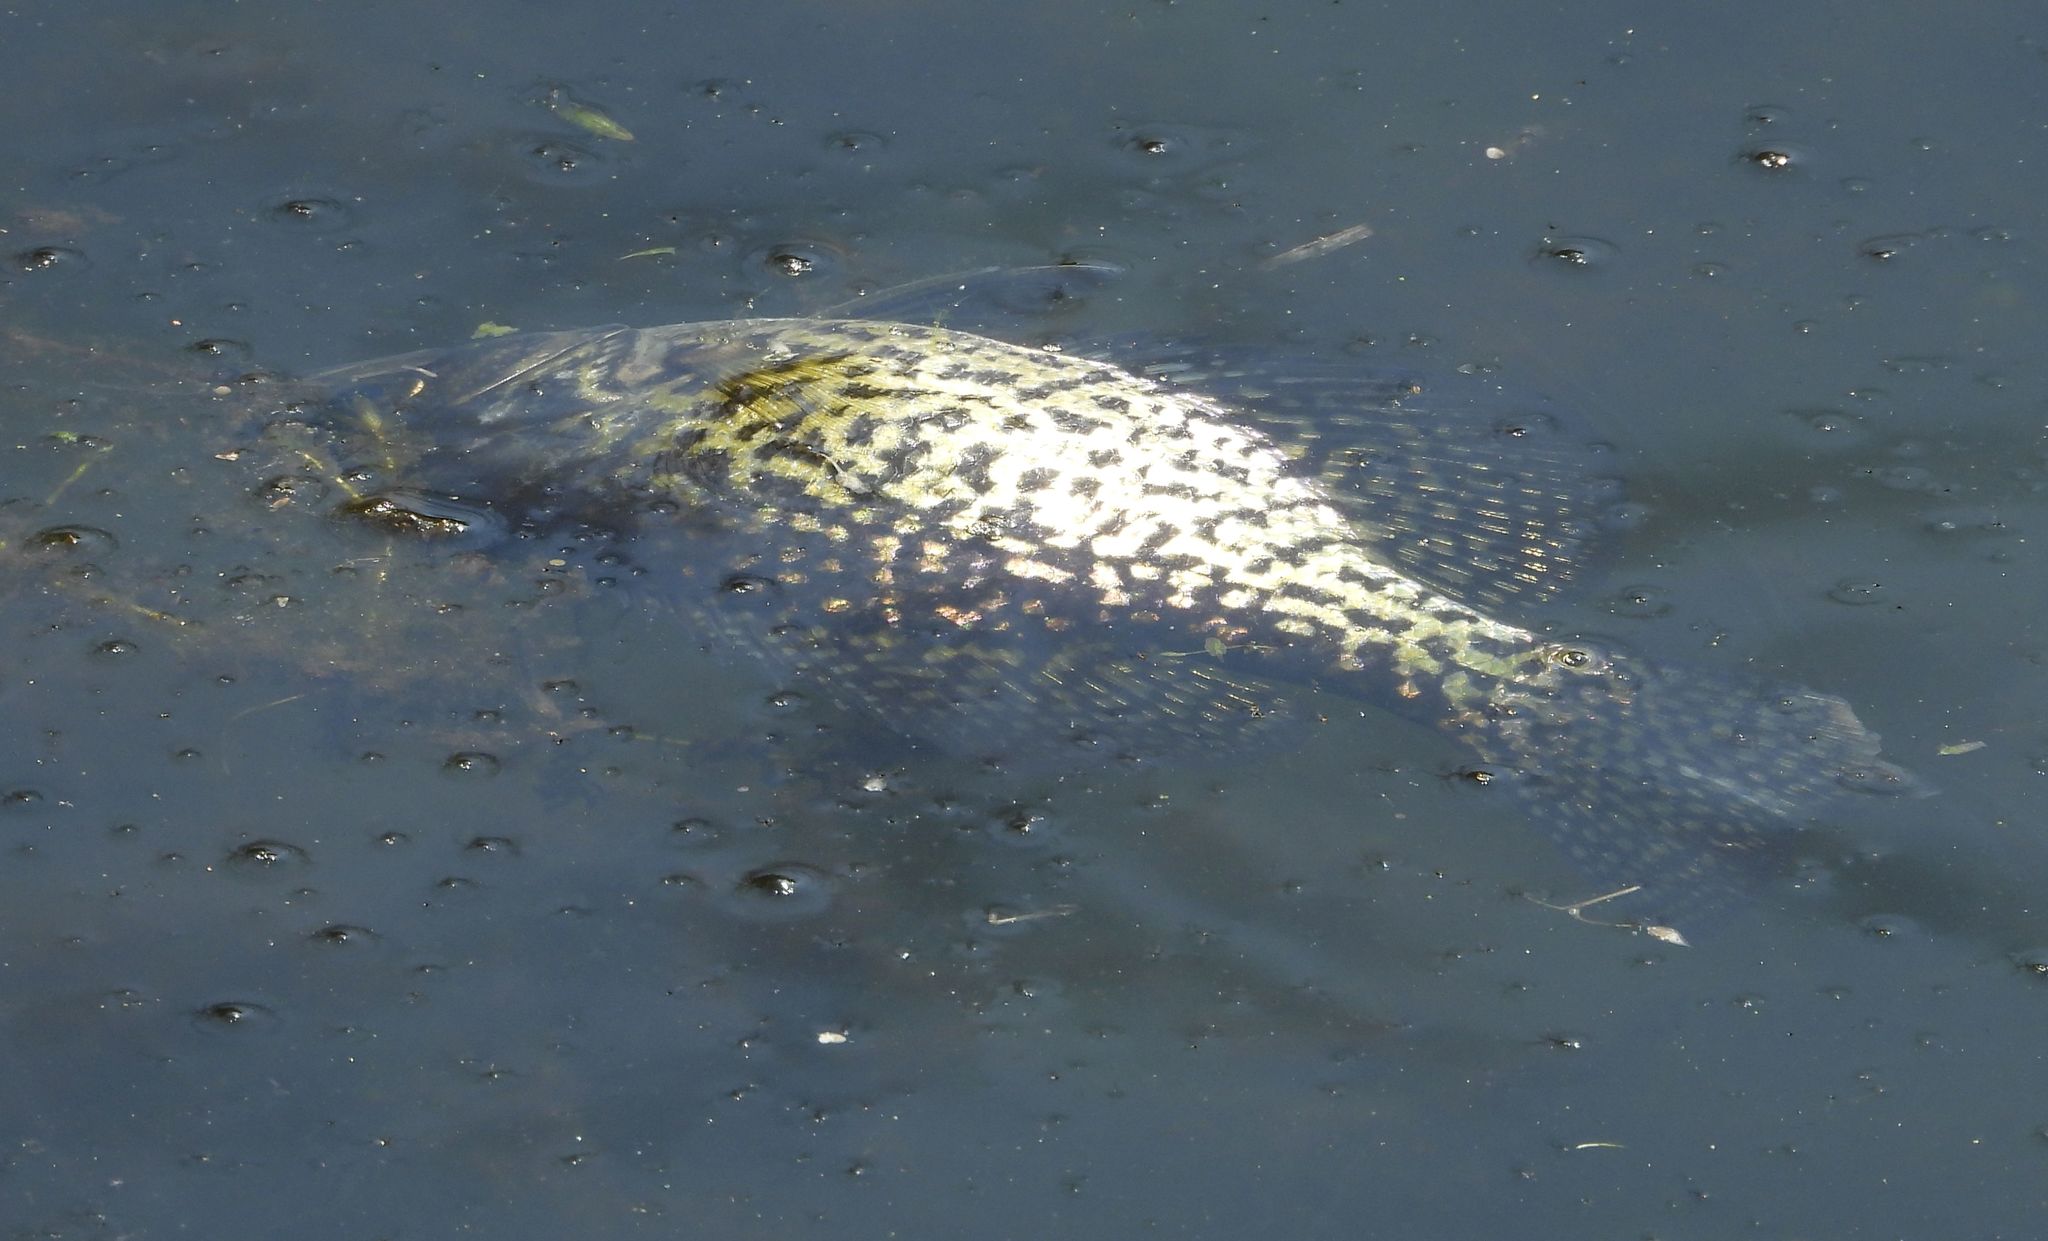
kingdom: Animalia
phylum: Chordata
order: Perciformes
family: Centrarchidae
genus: Pomoxis
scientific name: Pomoxis nigromaculatus
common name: Black crappie
